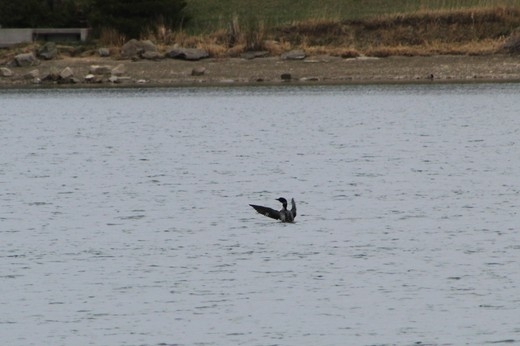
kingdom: Animalia
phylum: Chordata
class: Aves
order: Gaviiformes
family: Gaviidae
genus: Gavia
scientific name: Gavia immer
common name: Common loon
